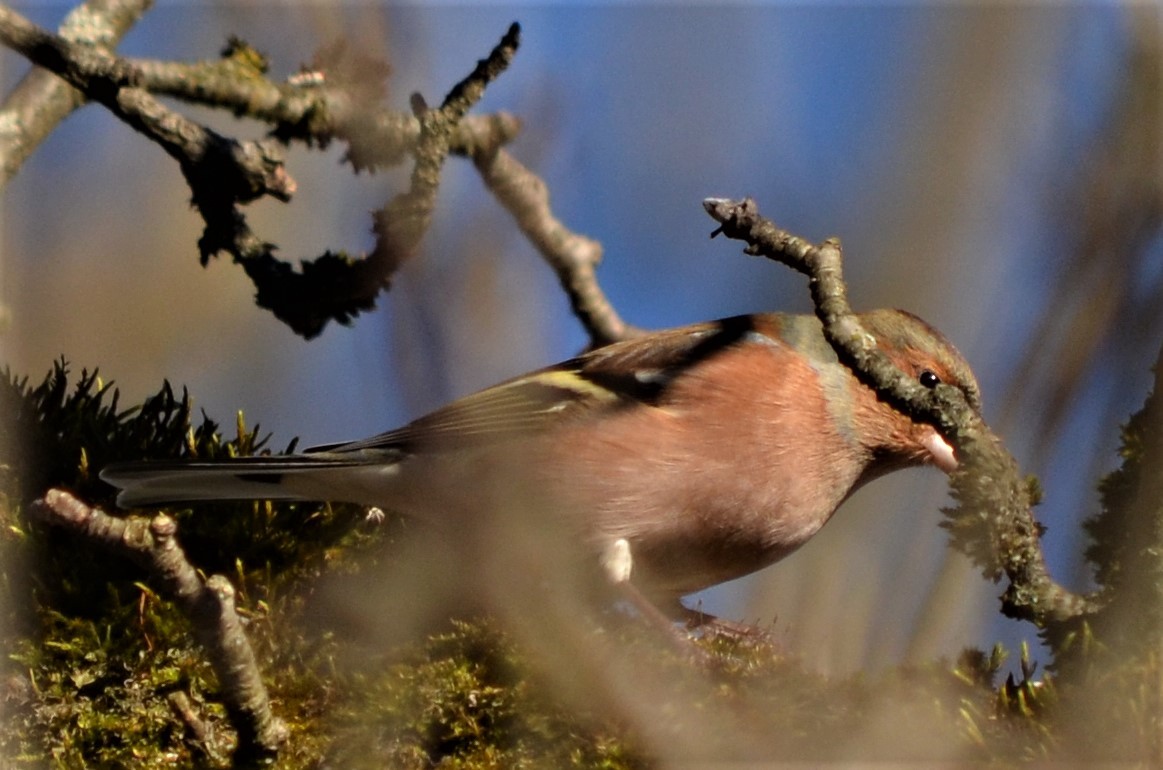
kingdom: Animalia
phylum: Chordata
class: Aves
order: Passeriformes
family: Fringillidae
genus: Fringilla
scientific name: Fringilla coelebs
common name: Common chaffinch
